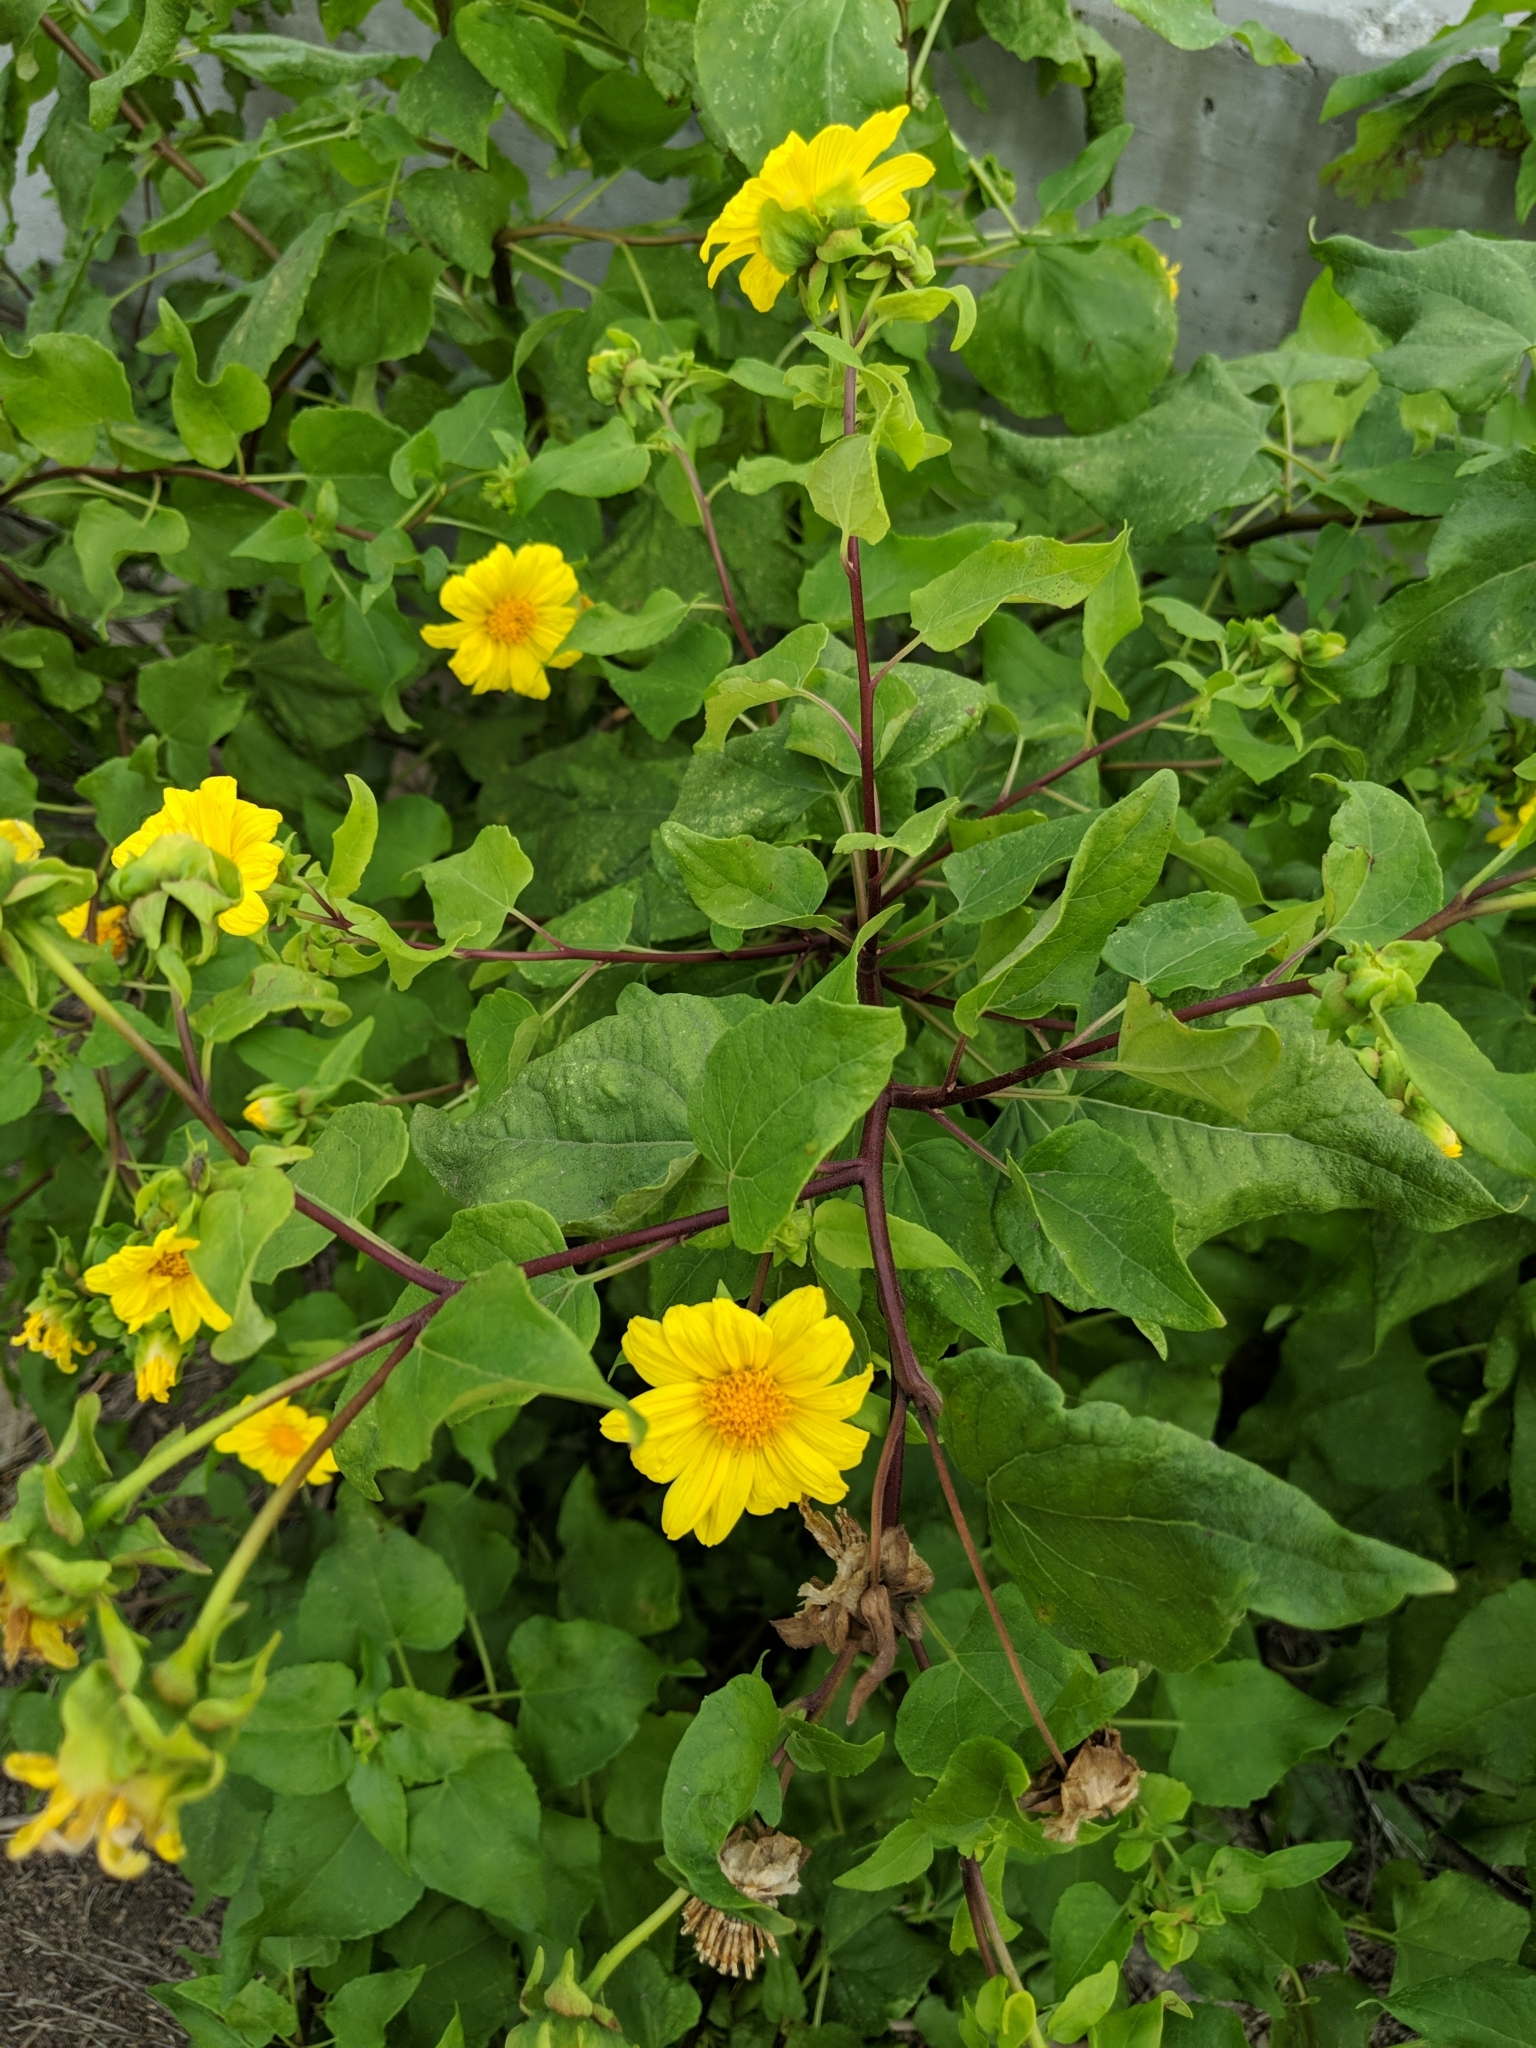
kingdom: Plantae
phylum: Tracheophyta
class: Magnoliopsida
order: Asterales
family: Asteraceae
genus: Venegasia
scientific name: Venegasia carpesioides
